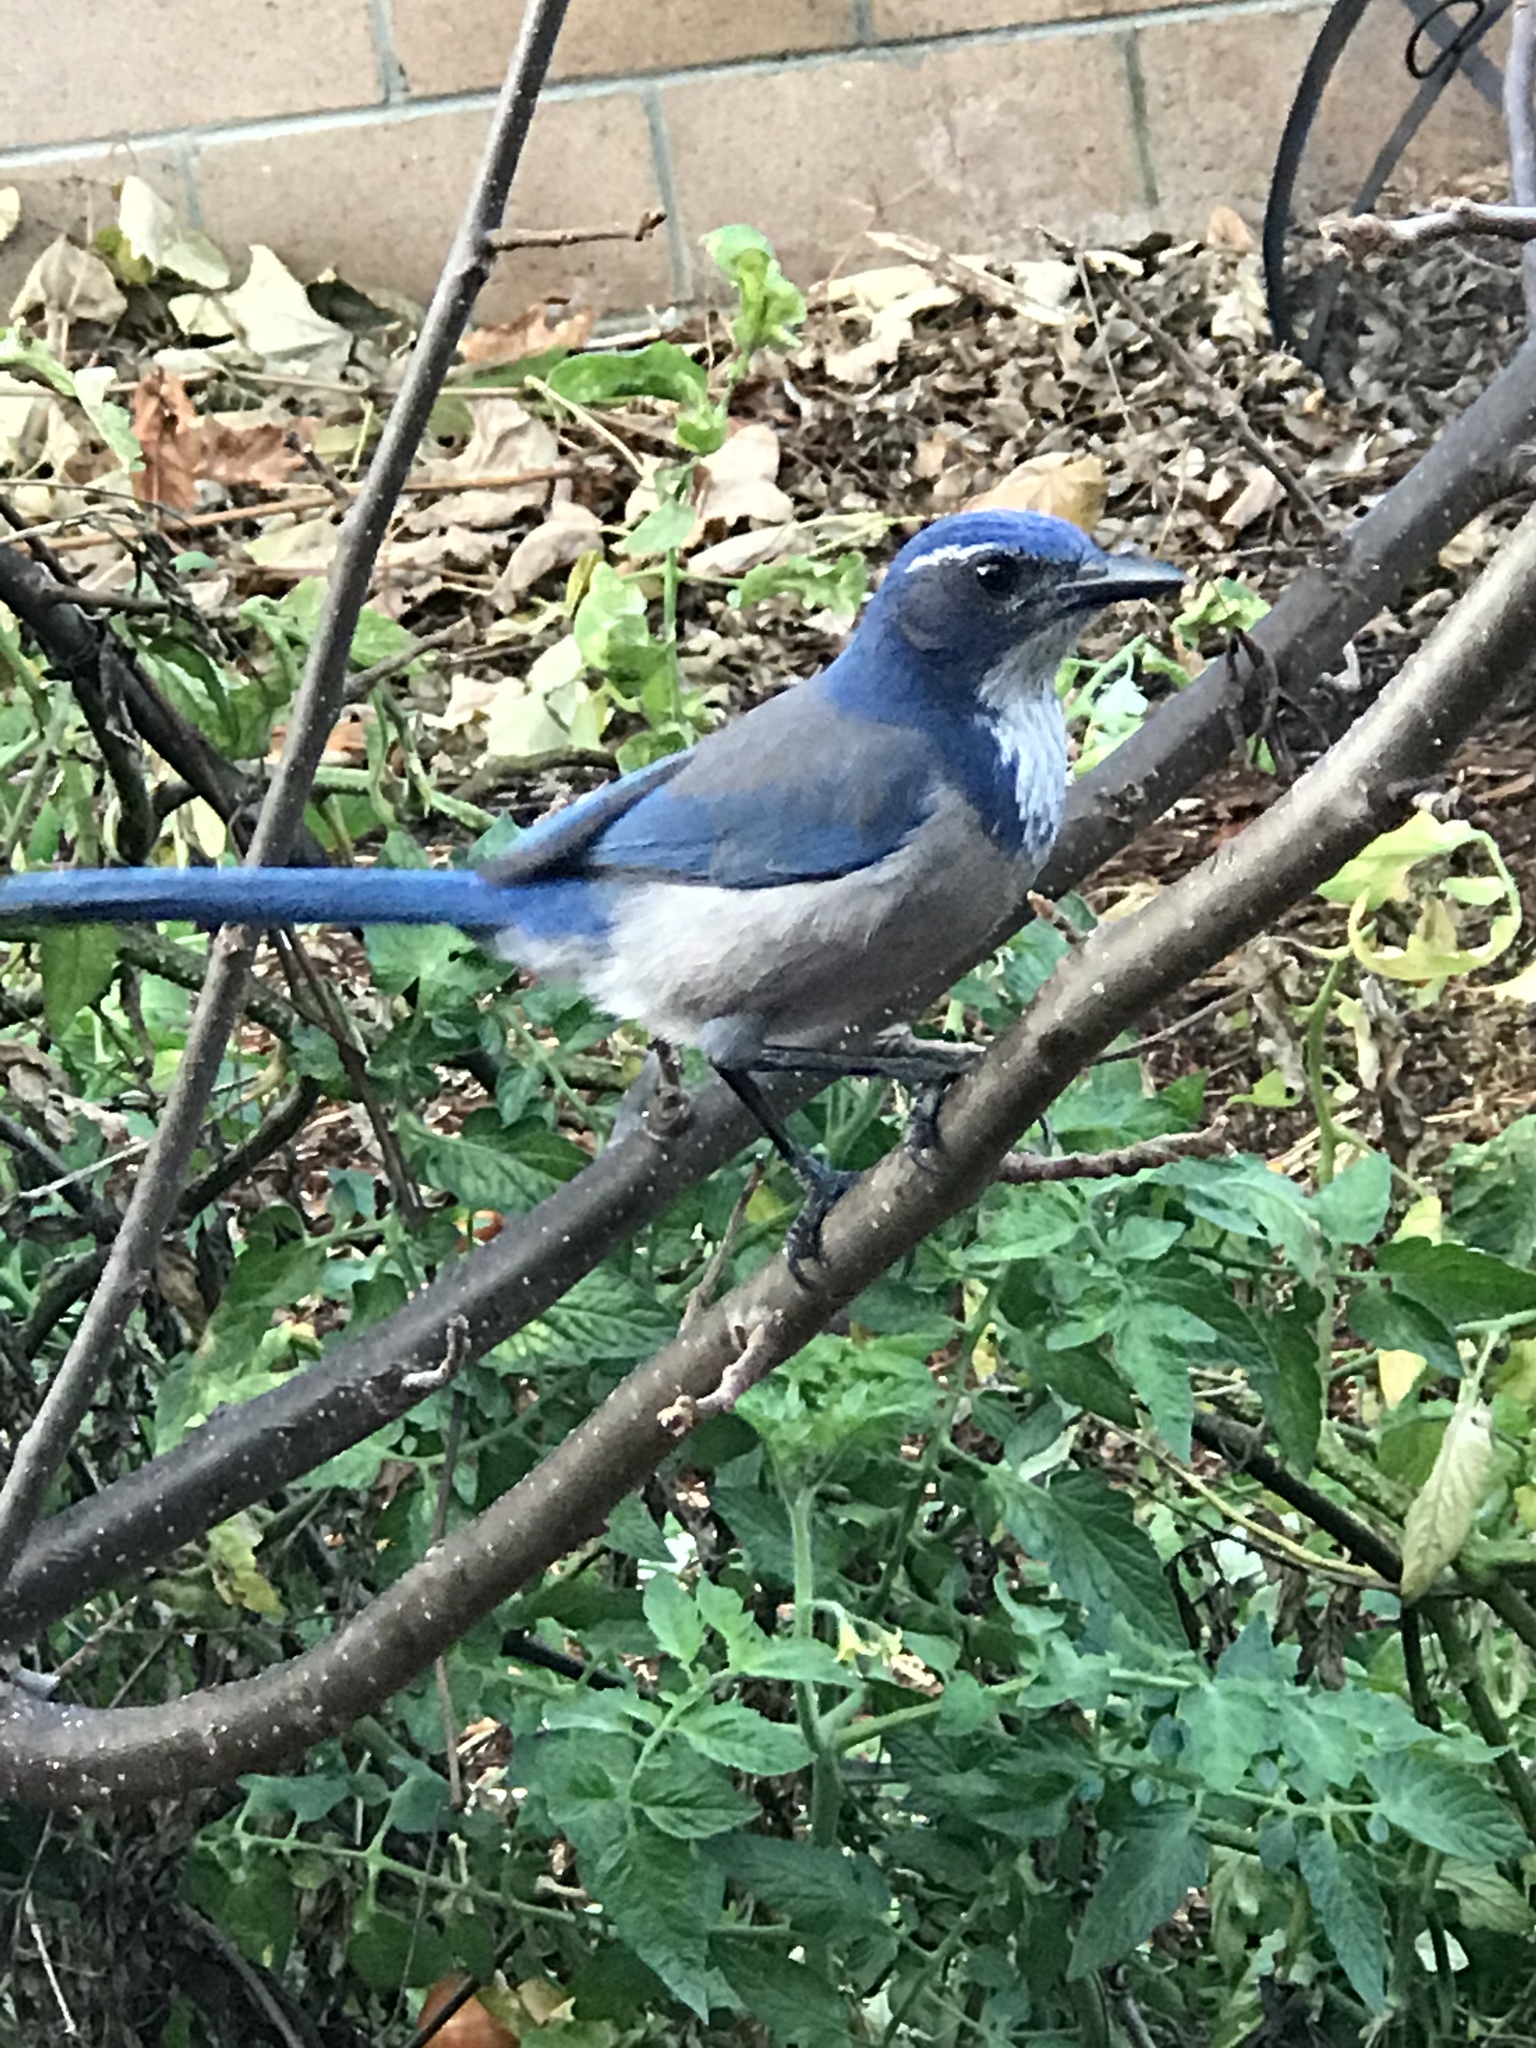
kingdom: Animalia
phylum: Chordata
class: Aves
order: Passeriformes
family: Corvidae
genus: Aphelocoma
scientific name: Aphelocoma californica
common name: California scrub-jay
